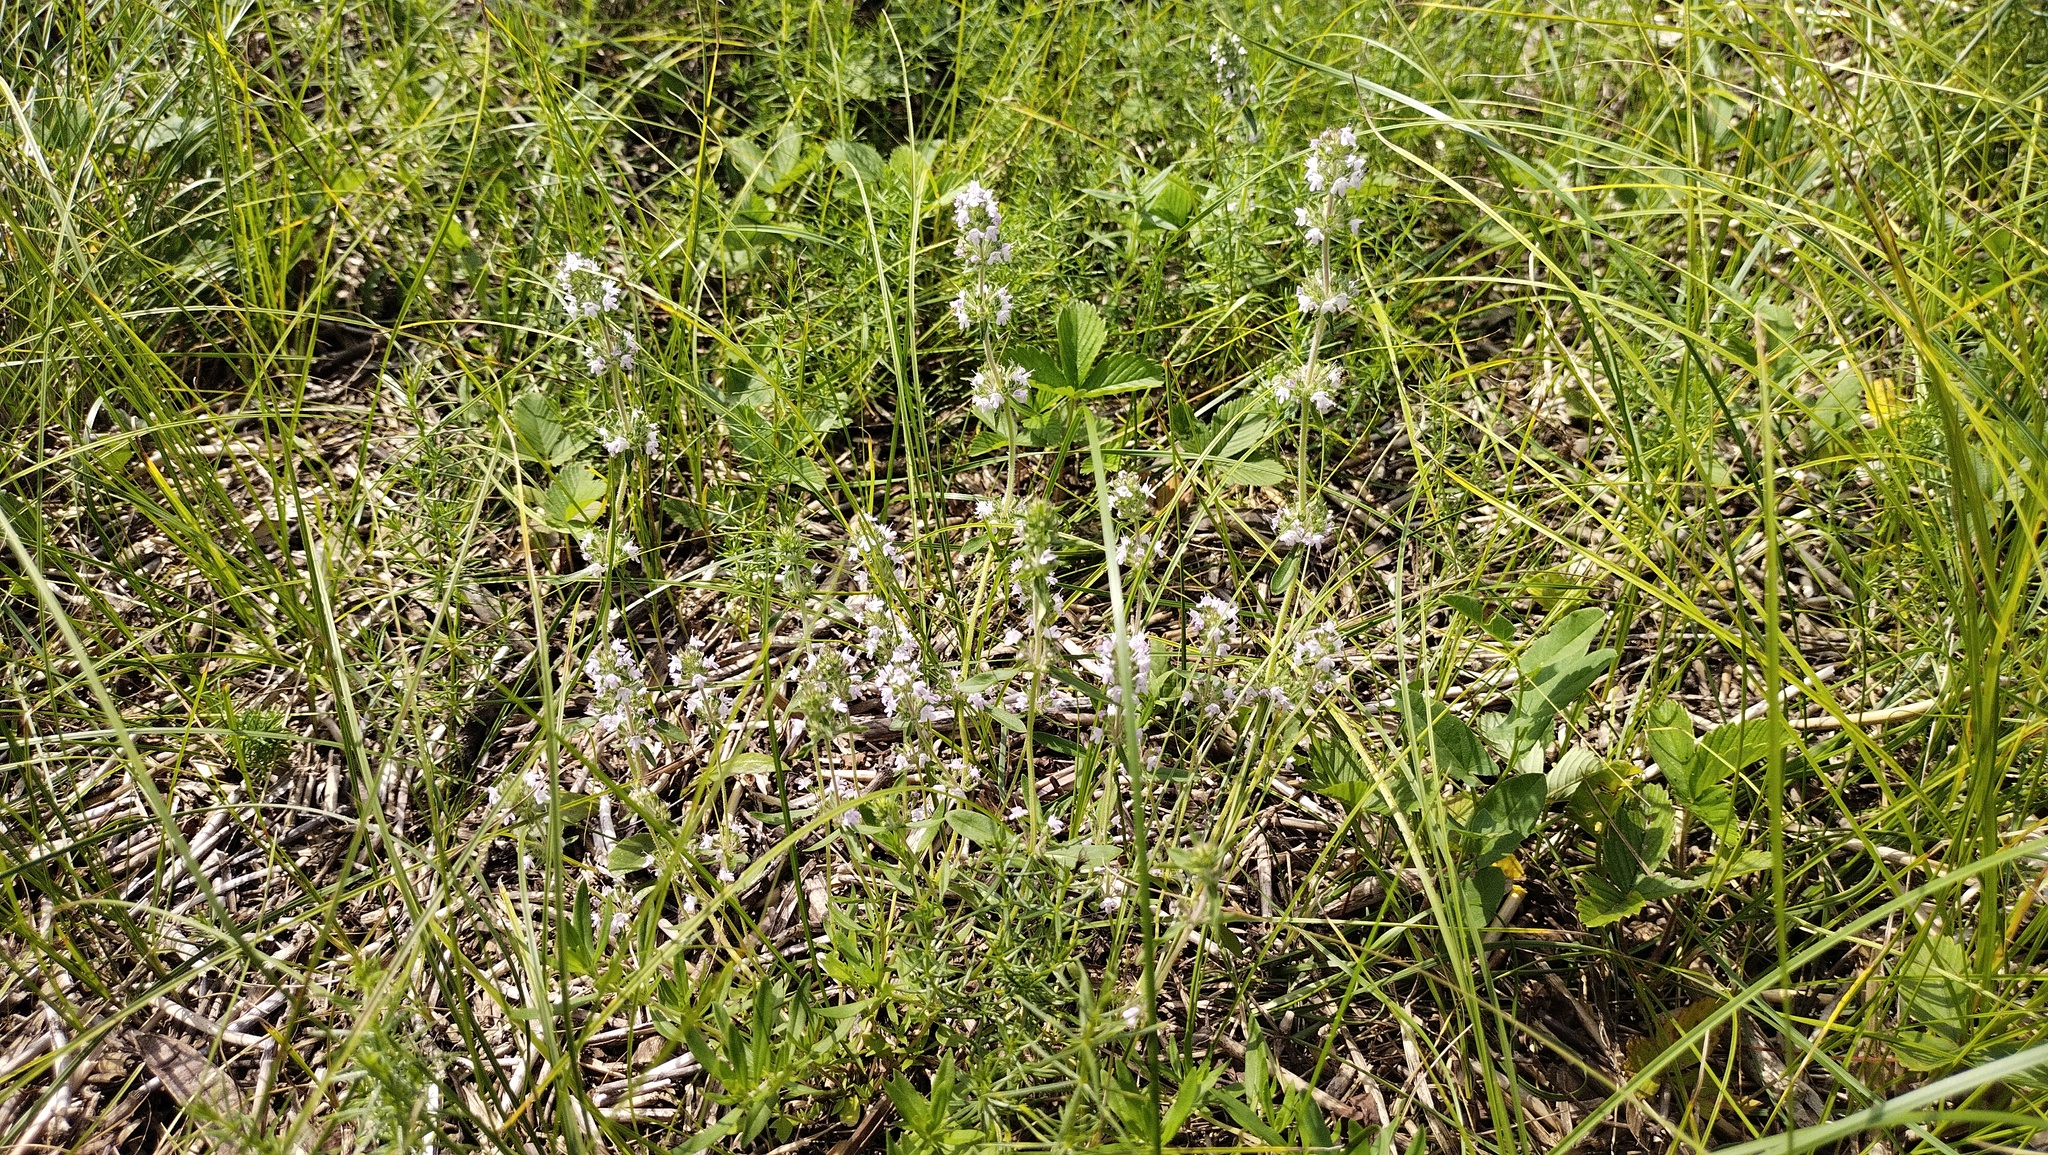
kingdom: Plantae
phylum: Tracheophyta
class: Magnoliopsida
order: Lamiales
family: Lamiaceae
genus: Thymus
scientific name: Thymus pannonicus
